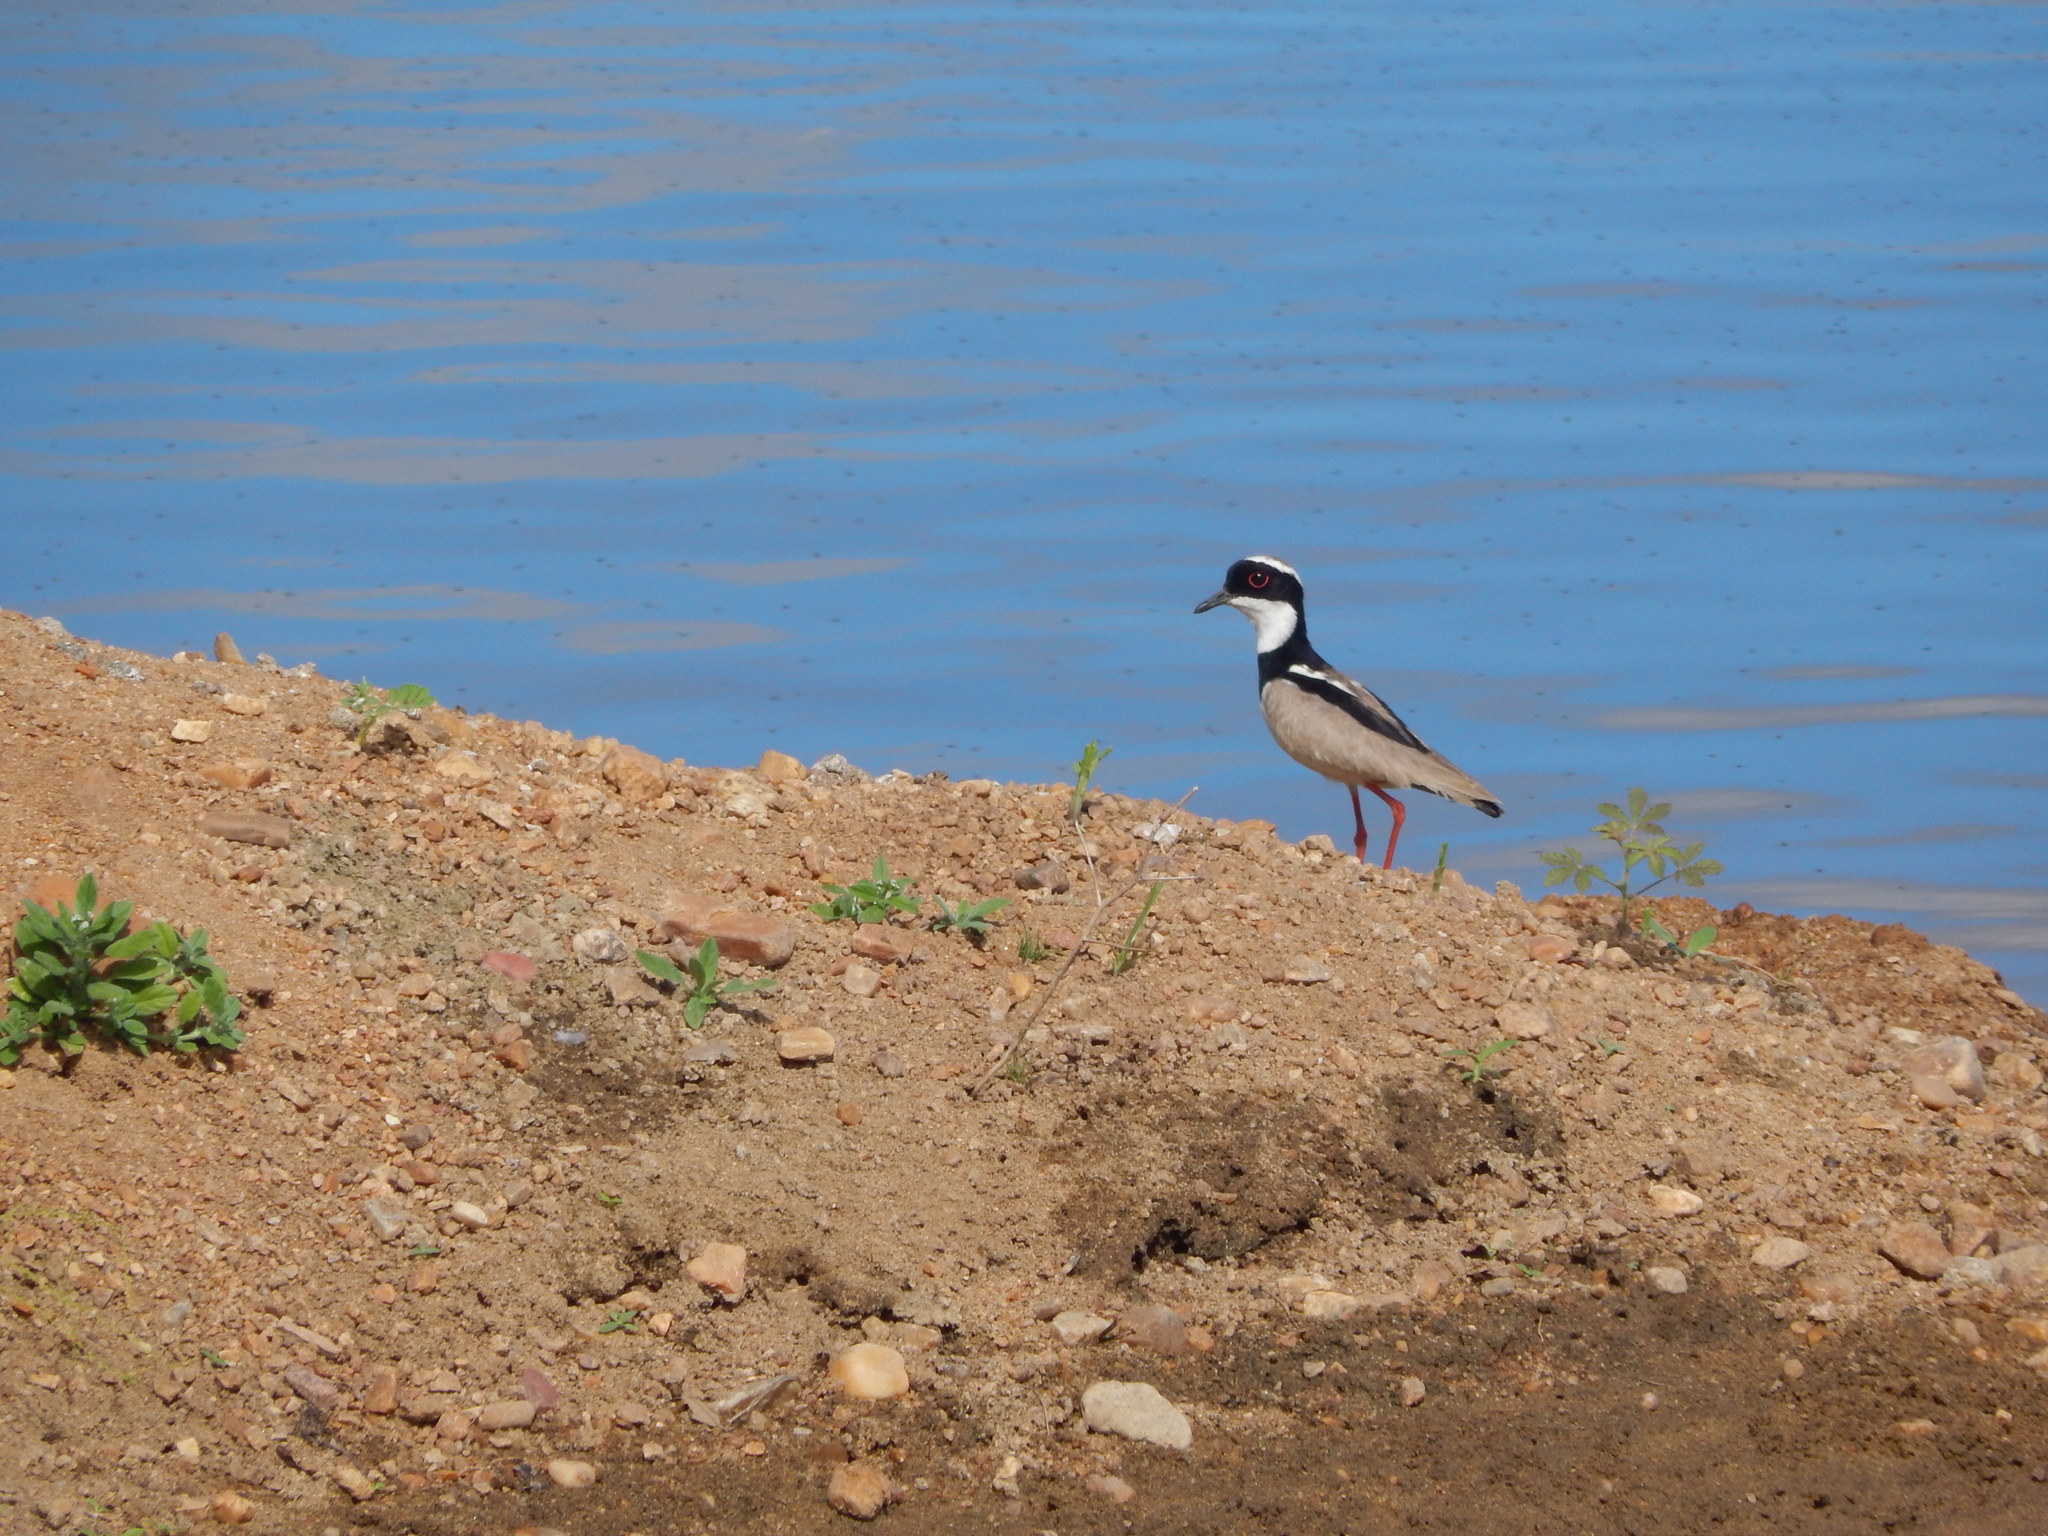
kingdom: Animalia
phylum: Chordata
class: Aves
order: Charadriiformes
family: Charadriidae
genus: Hoploxypterus
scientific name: Hoploxypterus cayanus
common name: Pied plover
